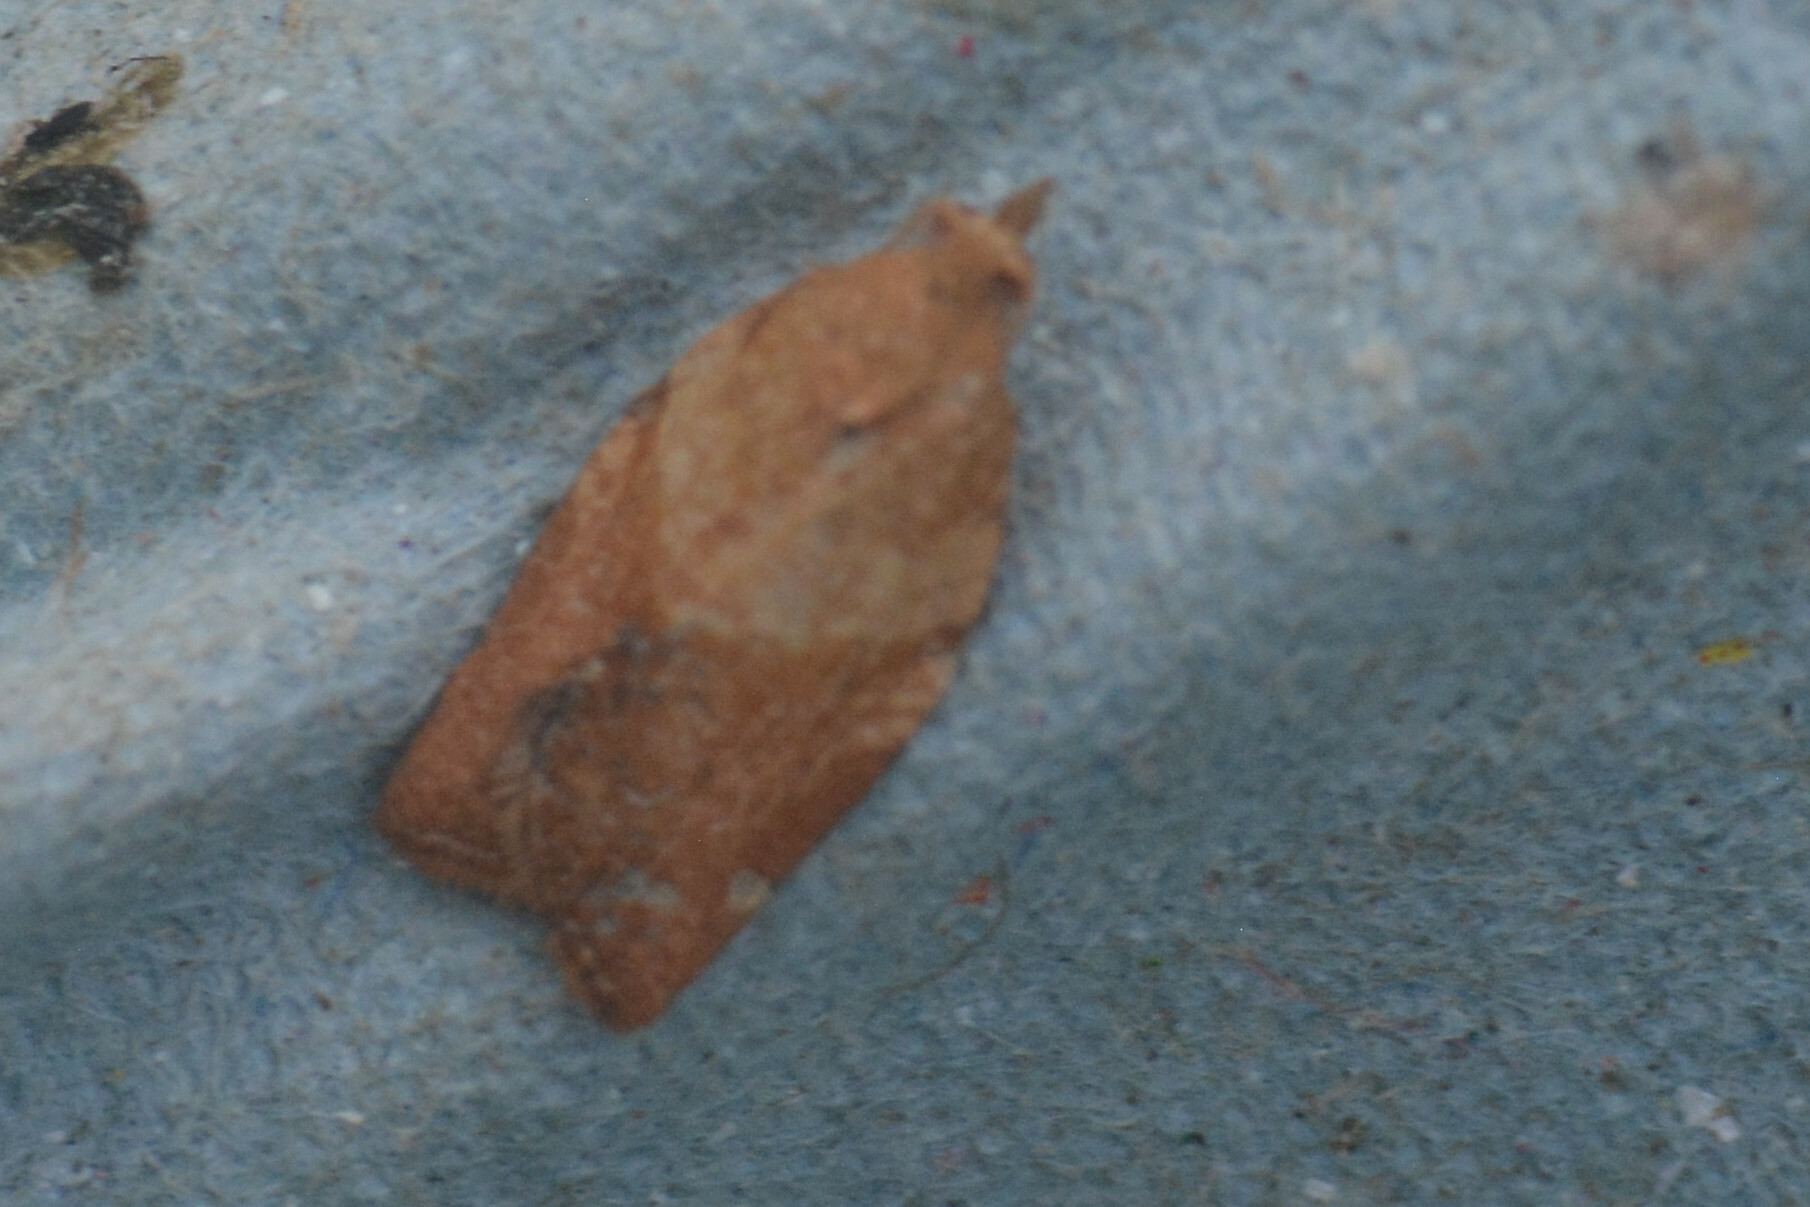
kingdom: Animalia
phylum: Arthropoda
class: Insecta
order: Lepidoptera
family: Tortricidae
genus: Epiphyas
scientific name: Epiphyas postvittana
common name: Light brown apple moth
